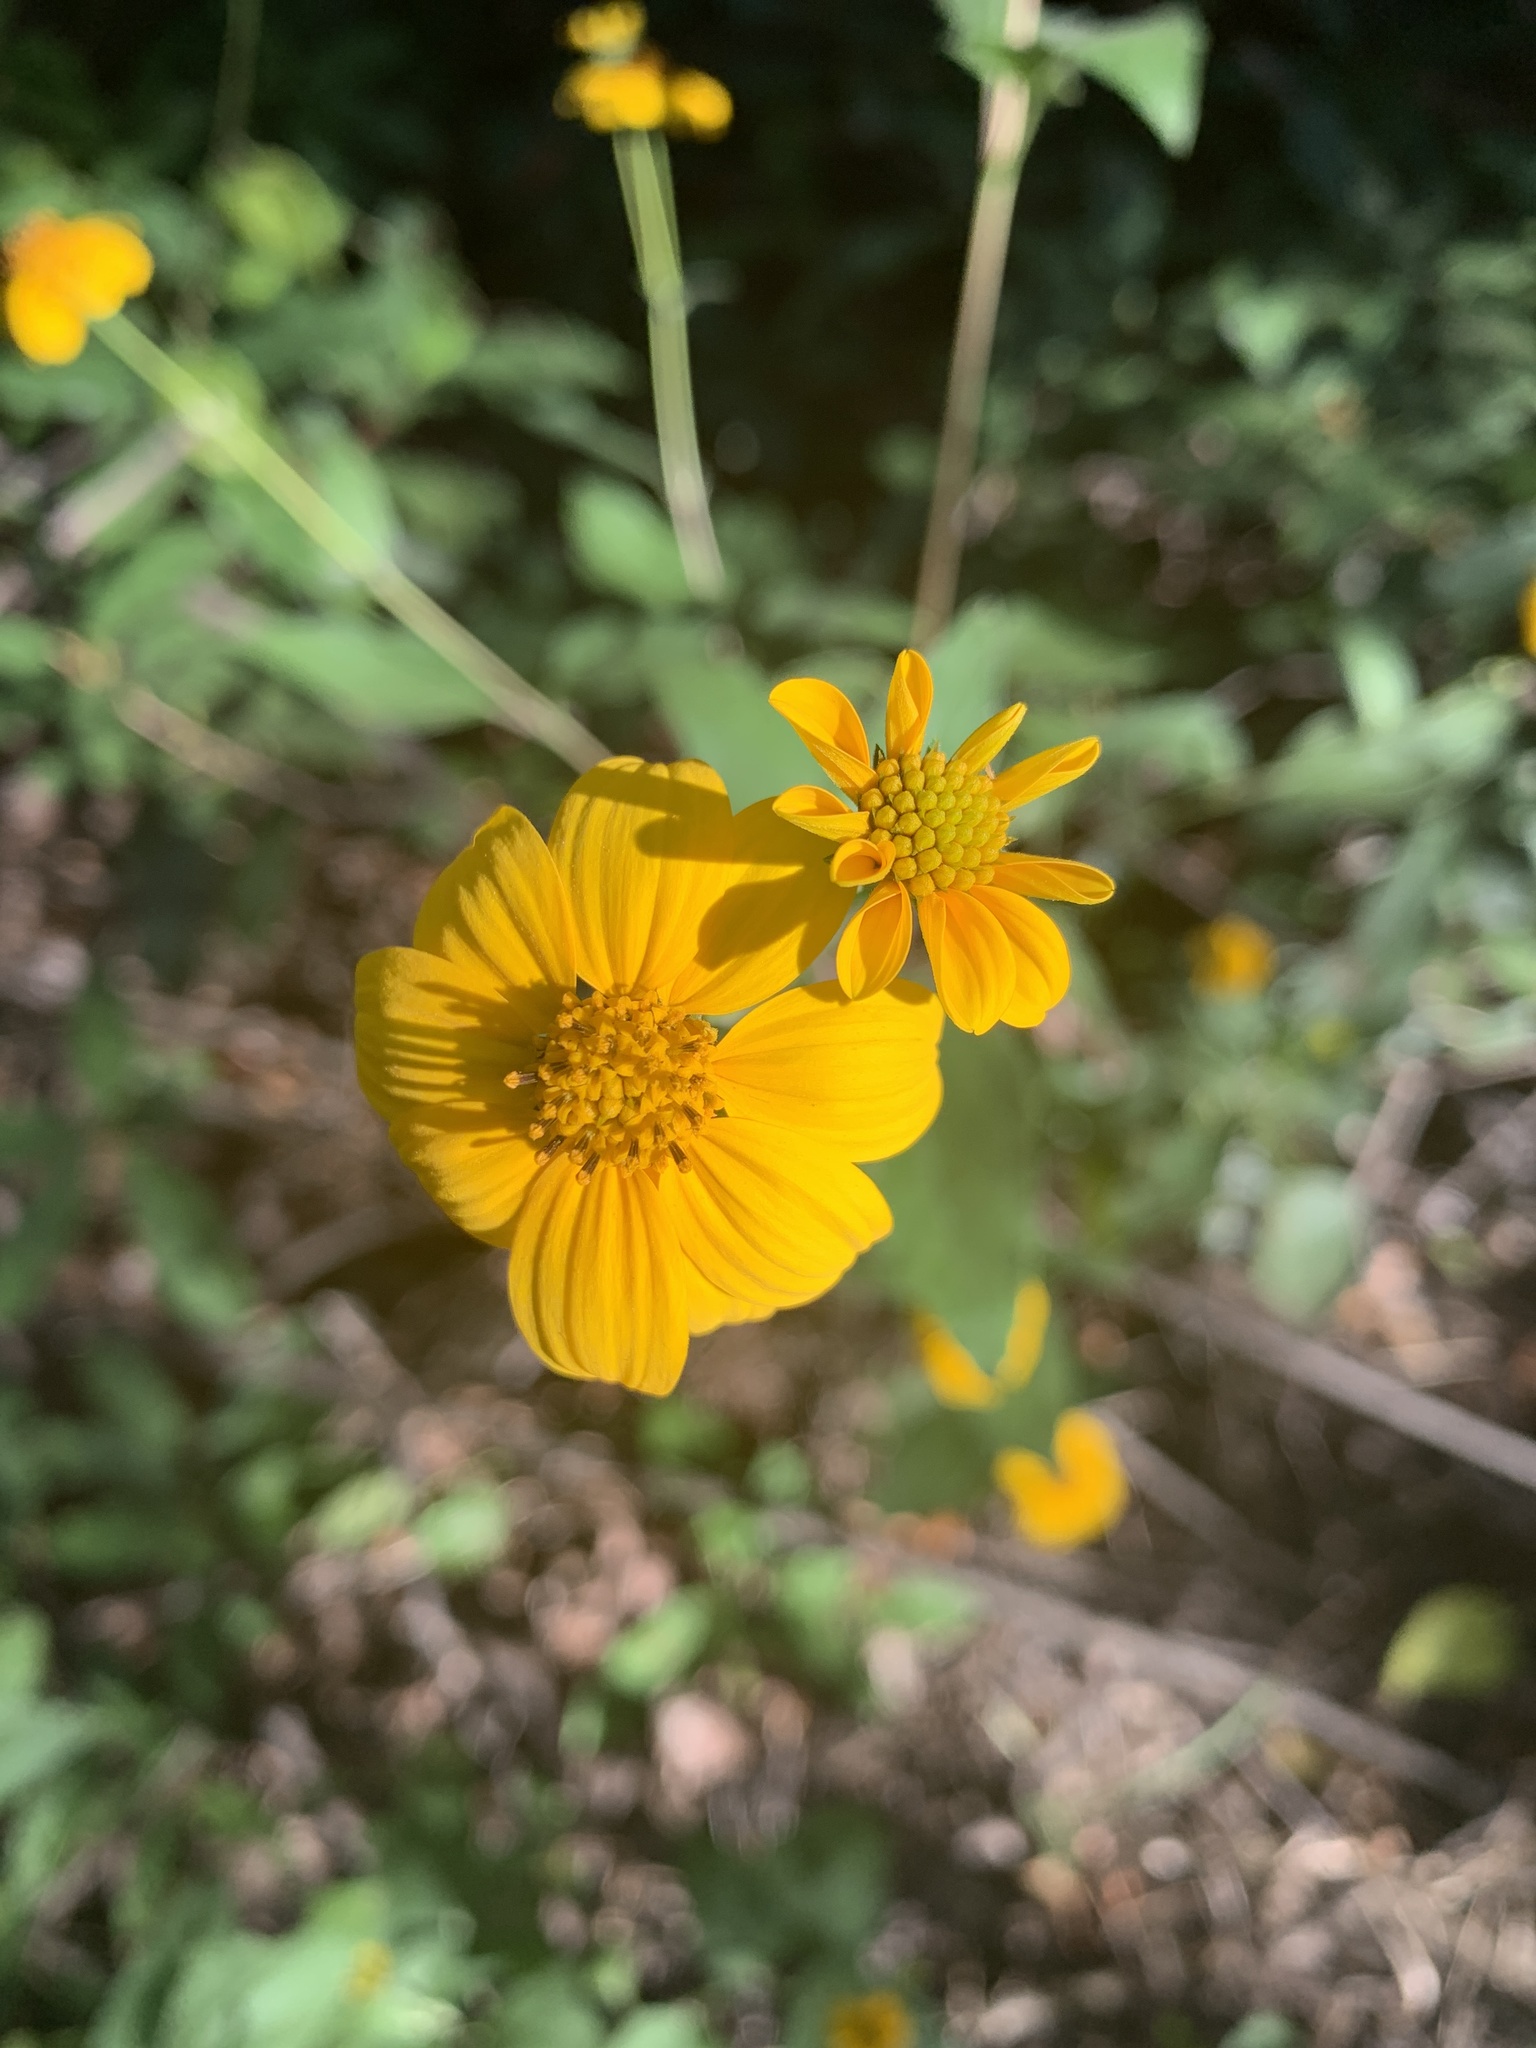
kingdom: Plantae
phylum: Tracheophyta
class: Magnoliopsida
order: Asterales
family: Asteraceae
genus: Viguiera
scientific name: Viguiera dentata
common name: Toothleaf
